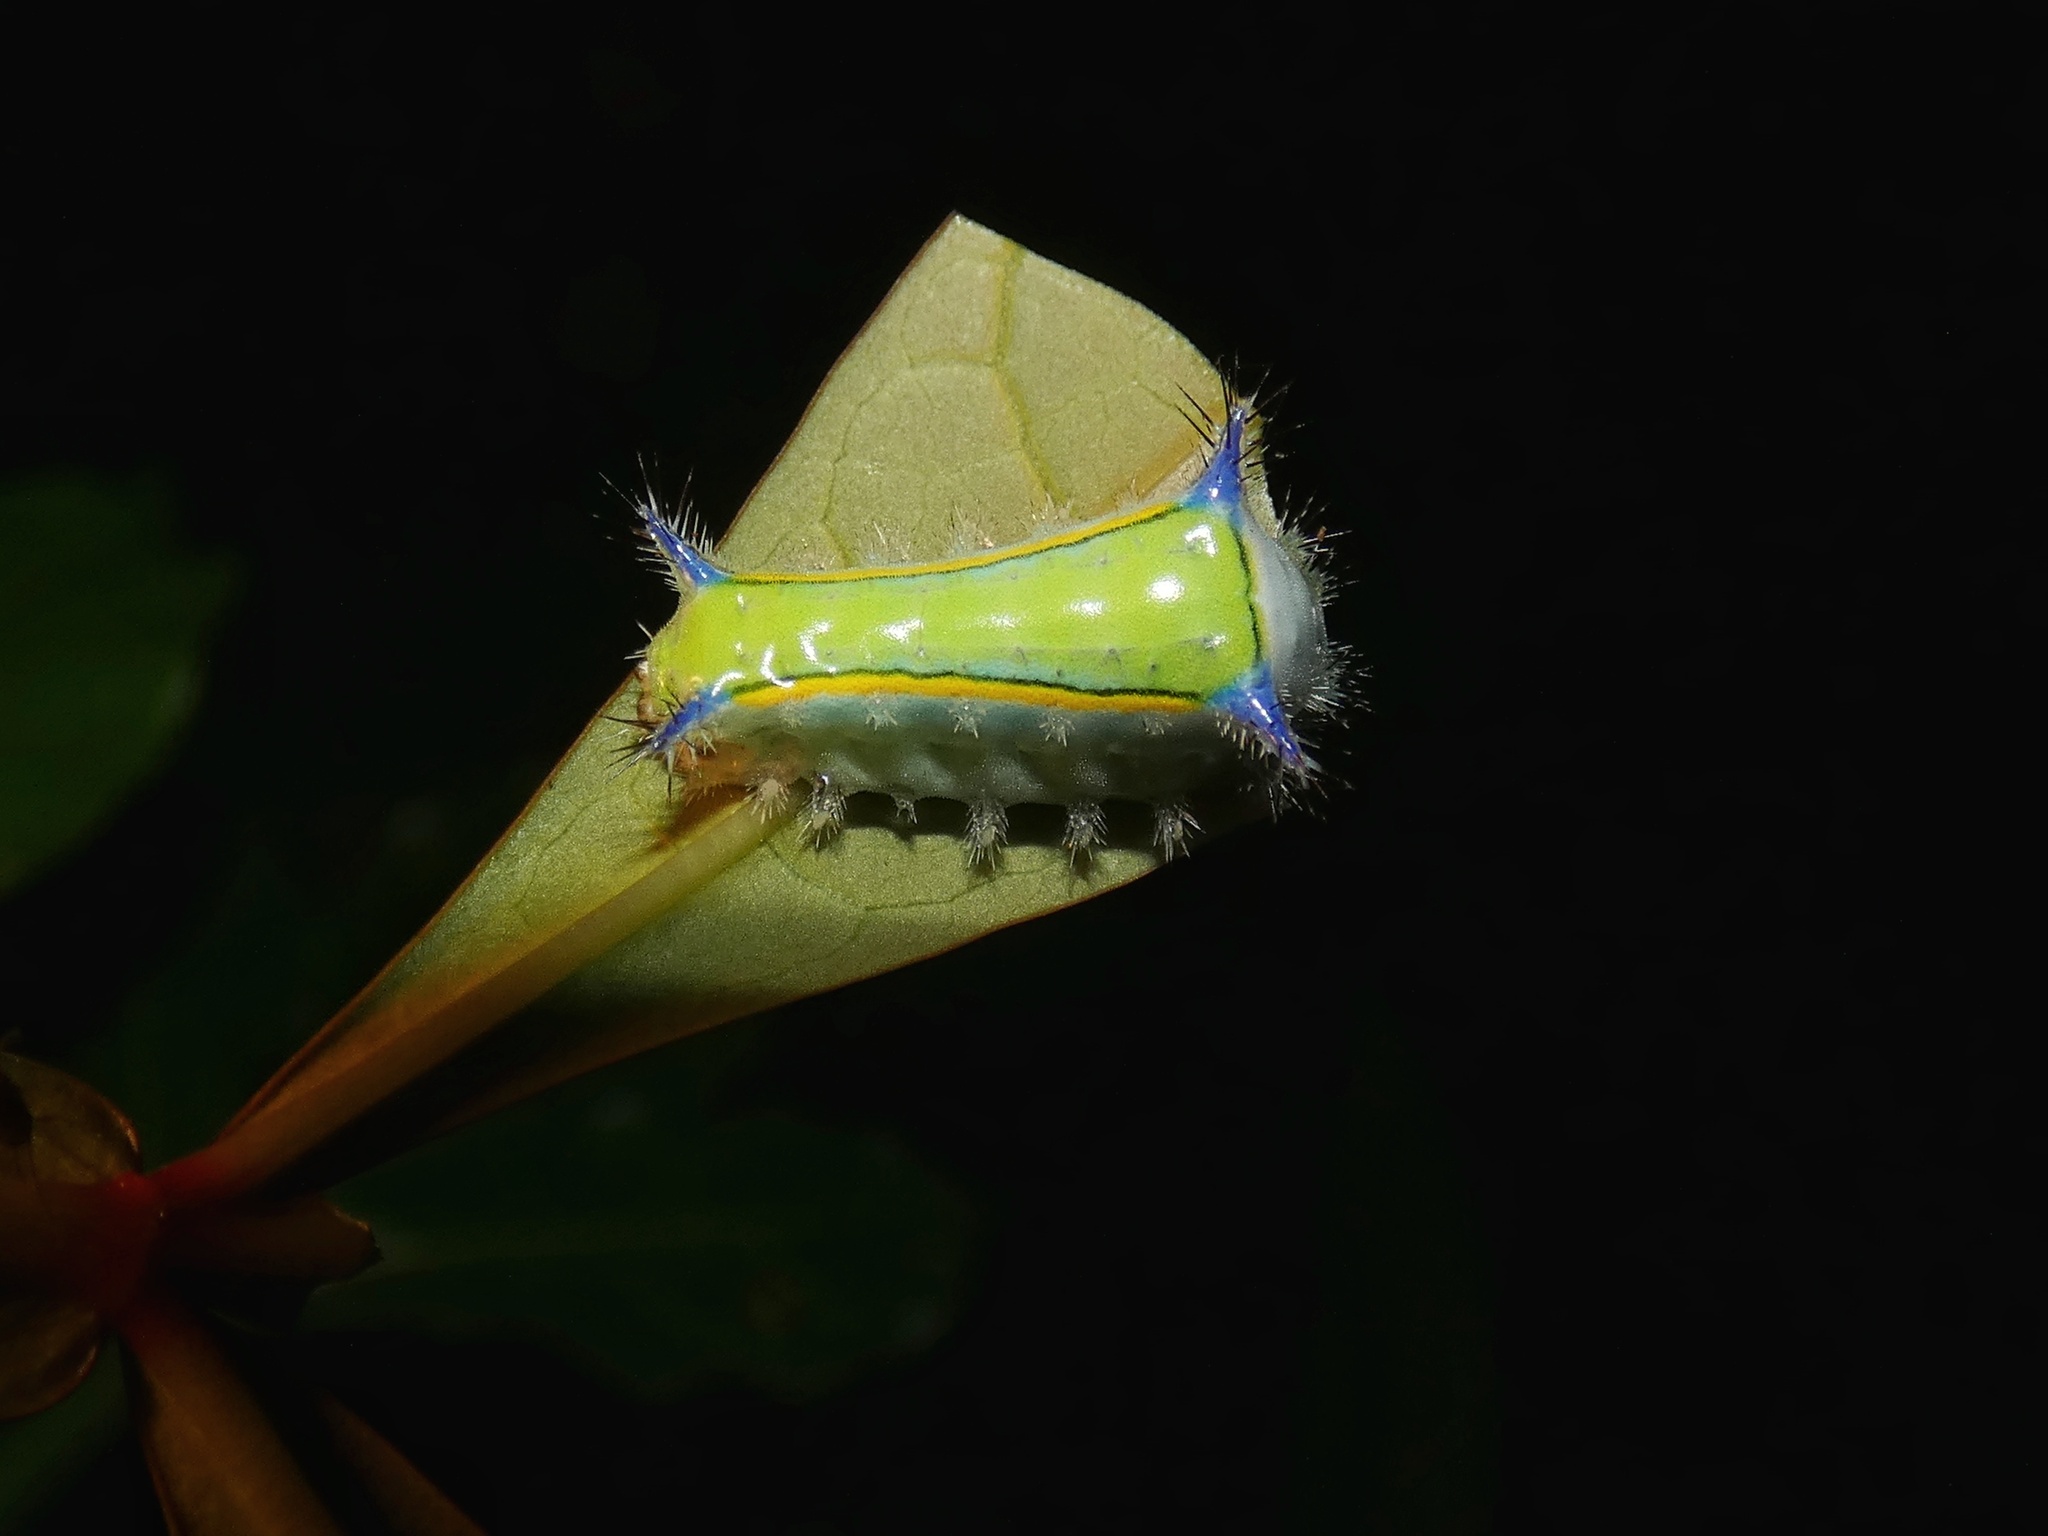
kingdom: Animalia
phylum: Arthropoda
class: Insecta
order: Lepidoptera
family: Limacodidae
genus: Parasa
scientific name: Parasa sandrae
